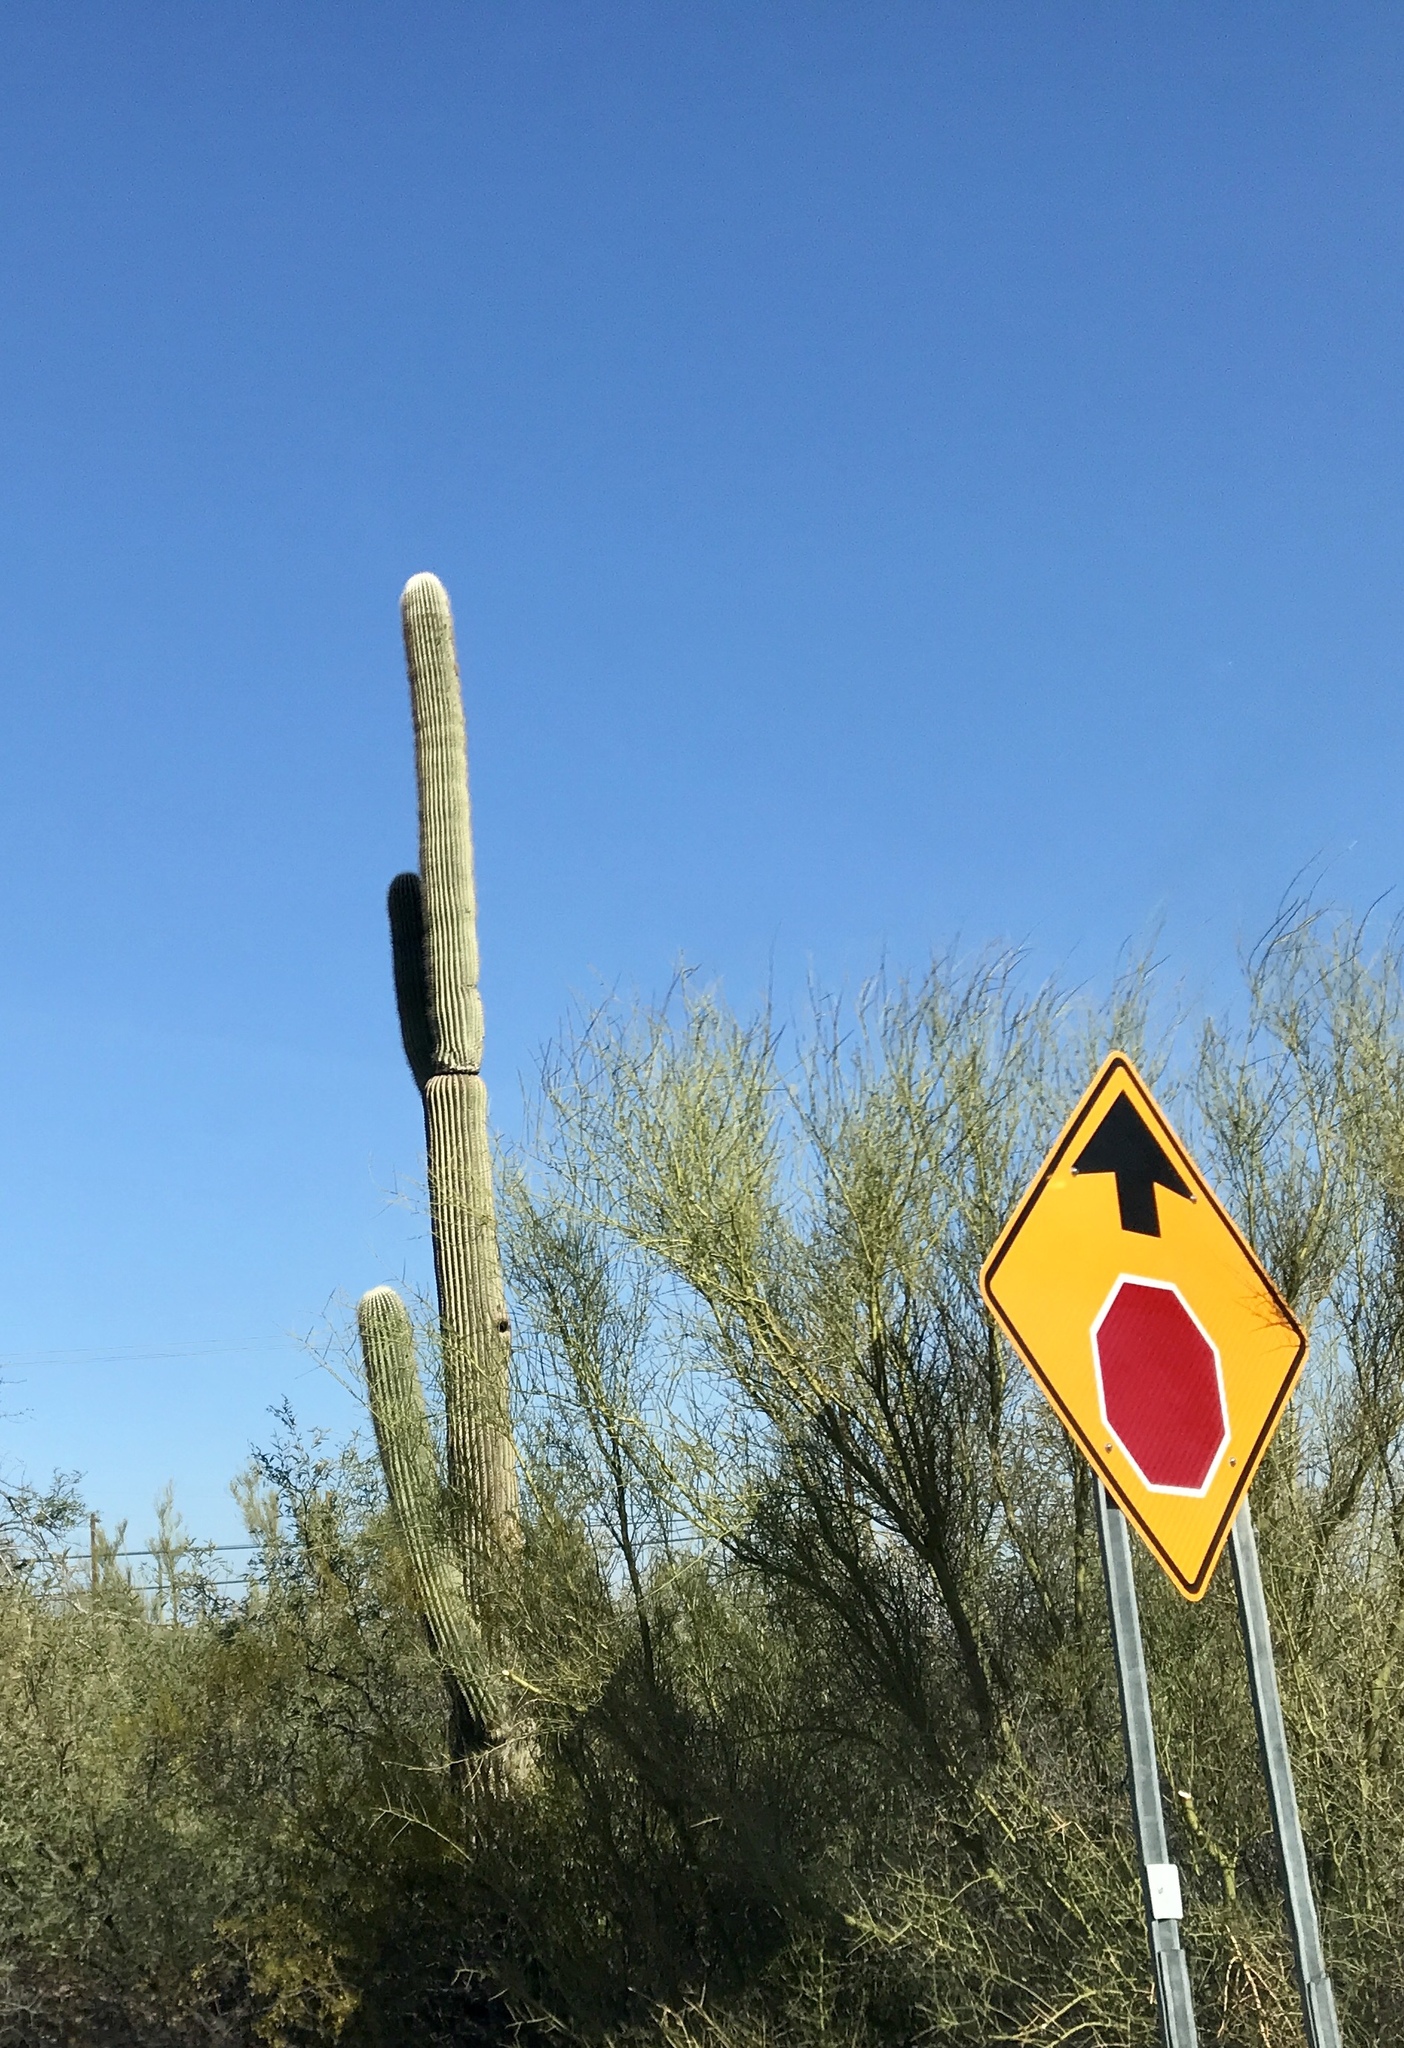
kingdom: Plantae
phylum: Tracheophyta
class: Magnoliopsida
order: Caryophyllales
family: Cactaceae
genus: Carnegiea
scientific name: Carnegiea gigantea
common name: Saguaro
